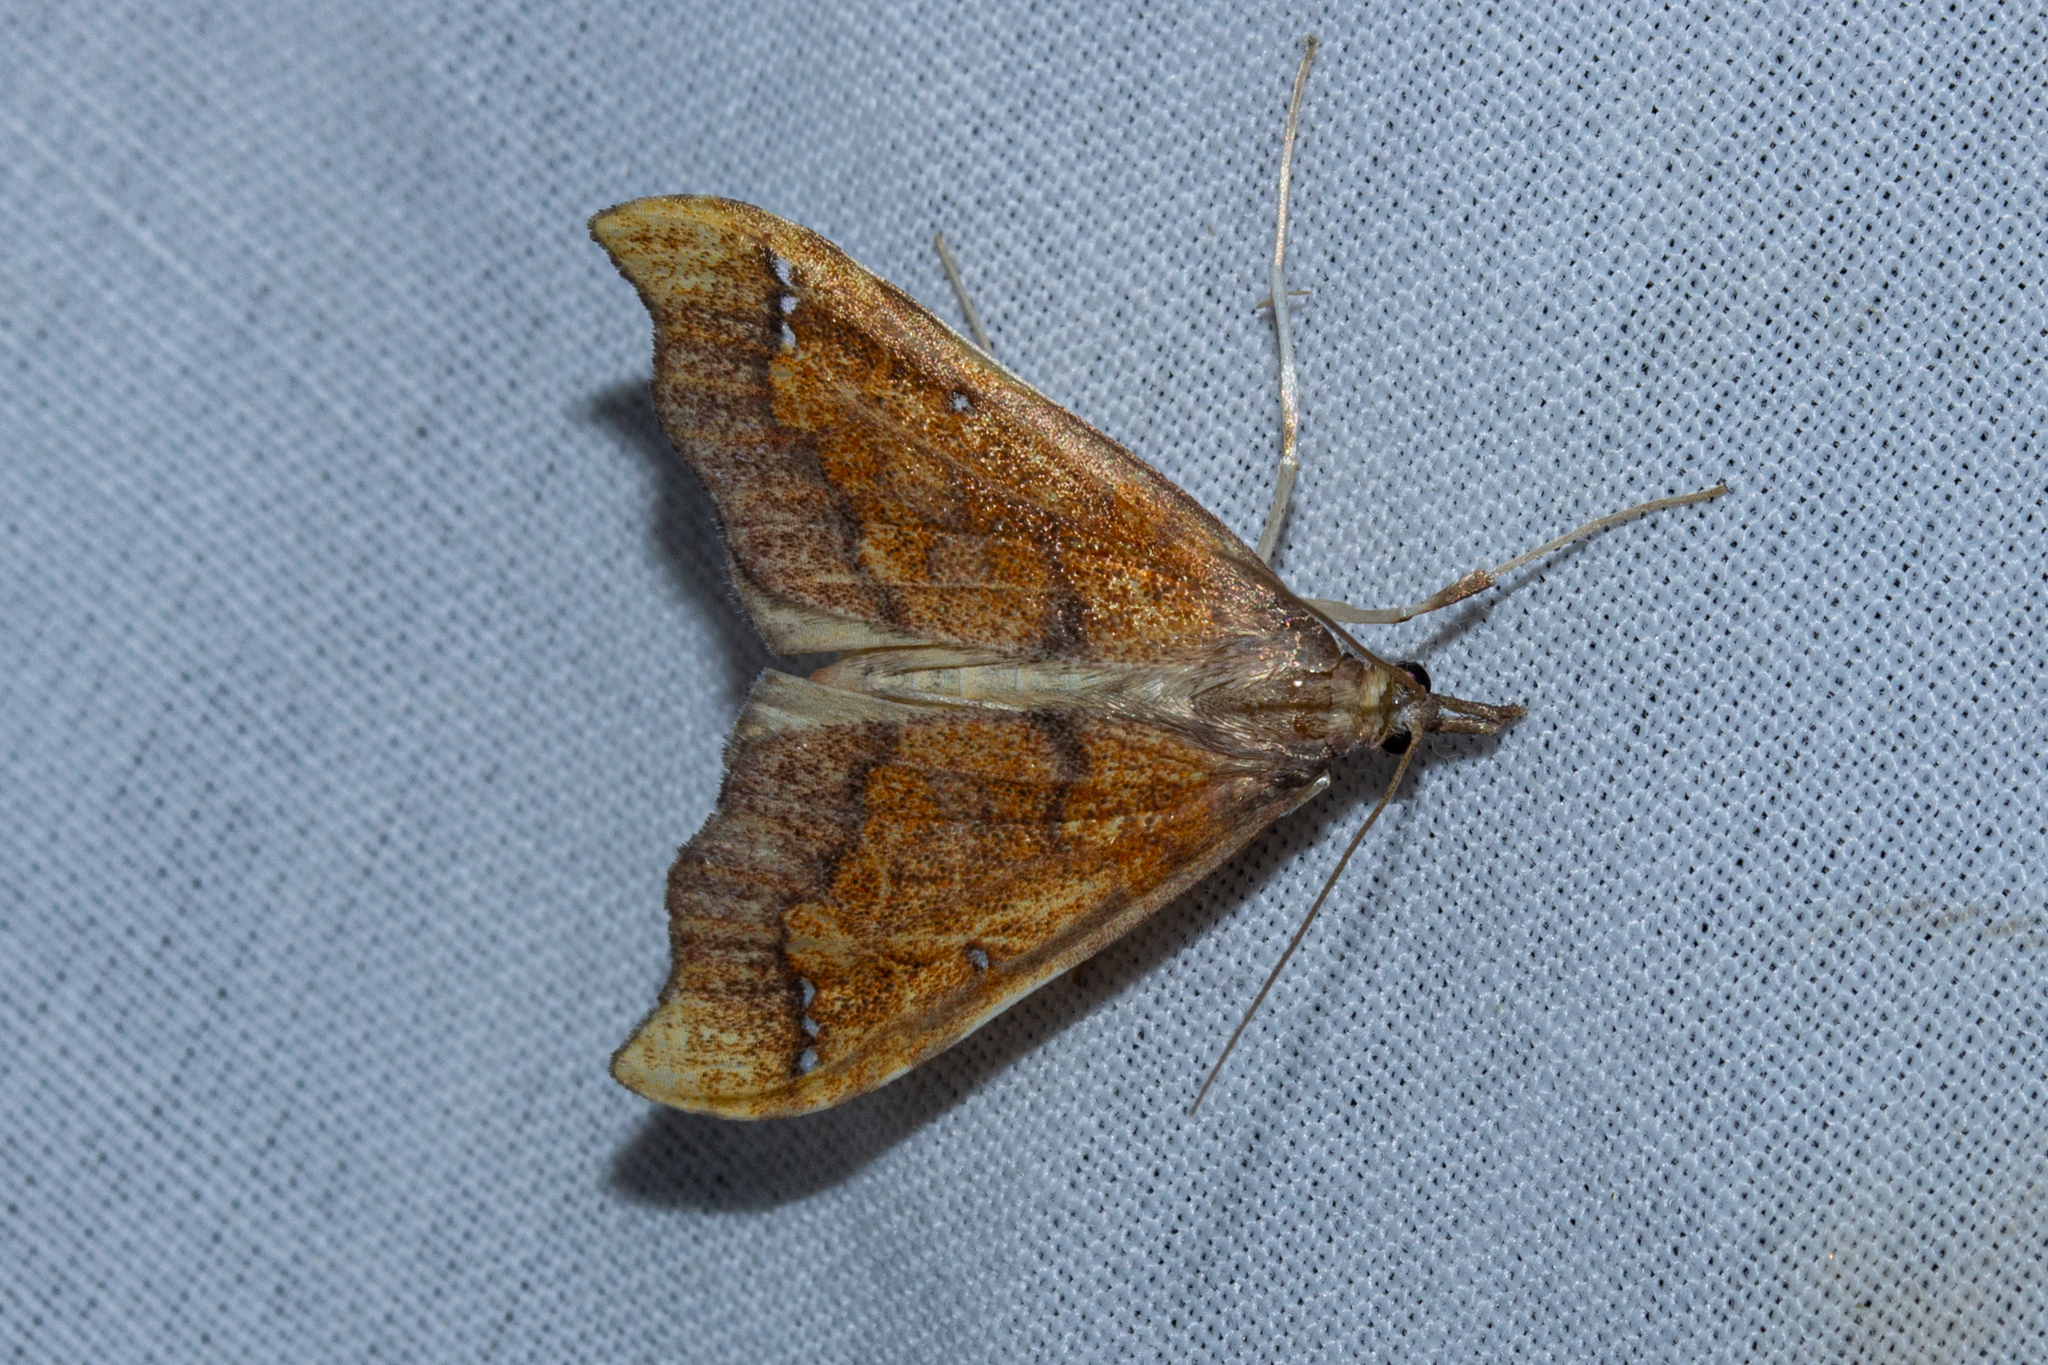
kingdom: Animalia
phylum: Arthropoda
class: Insecta
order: Lepidoptera
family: Crambidae
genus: Deana
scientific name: Deana hybreasalis
